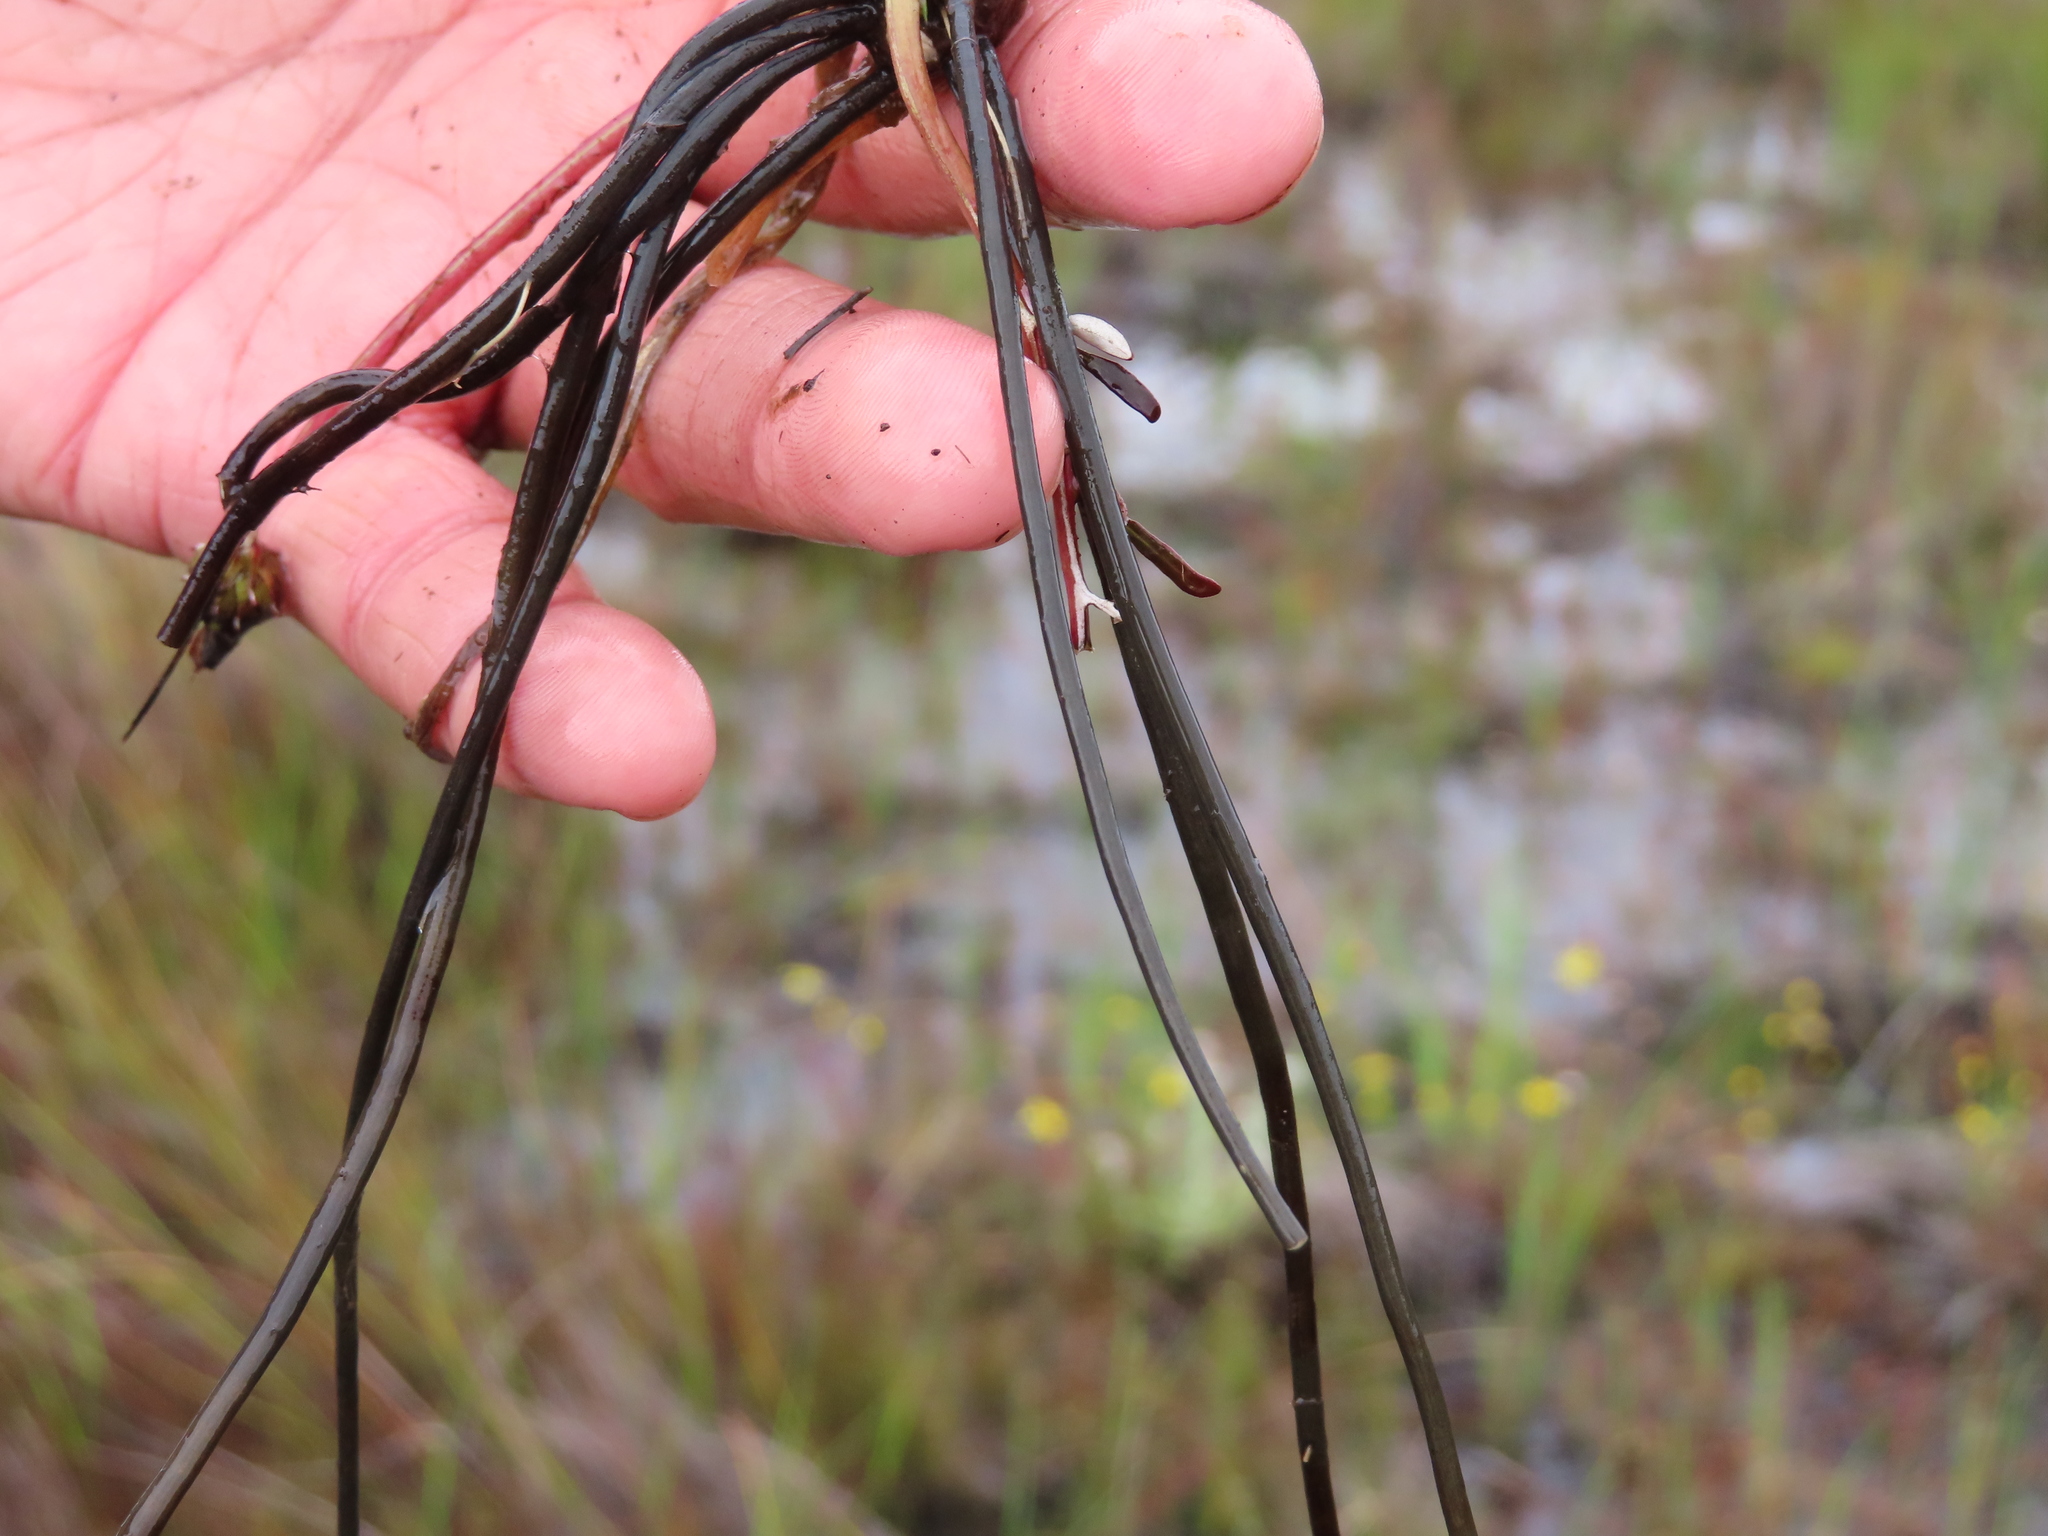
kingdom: Plantae
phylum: Tracheophyta
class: Magnoliopsida
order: Asterales
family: Asteraceae
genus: Arctotheca
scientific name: Arctotheca forbesiana
